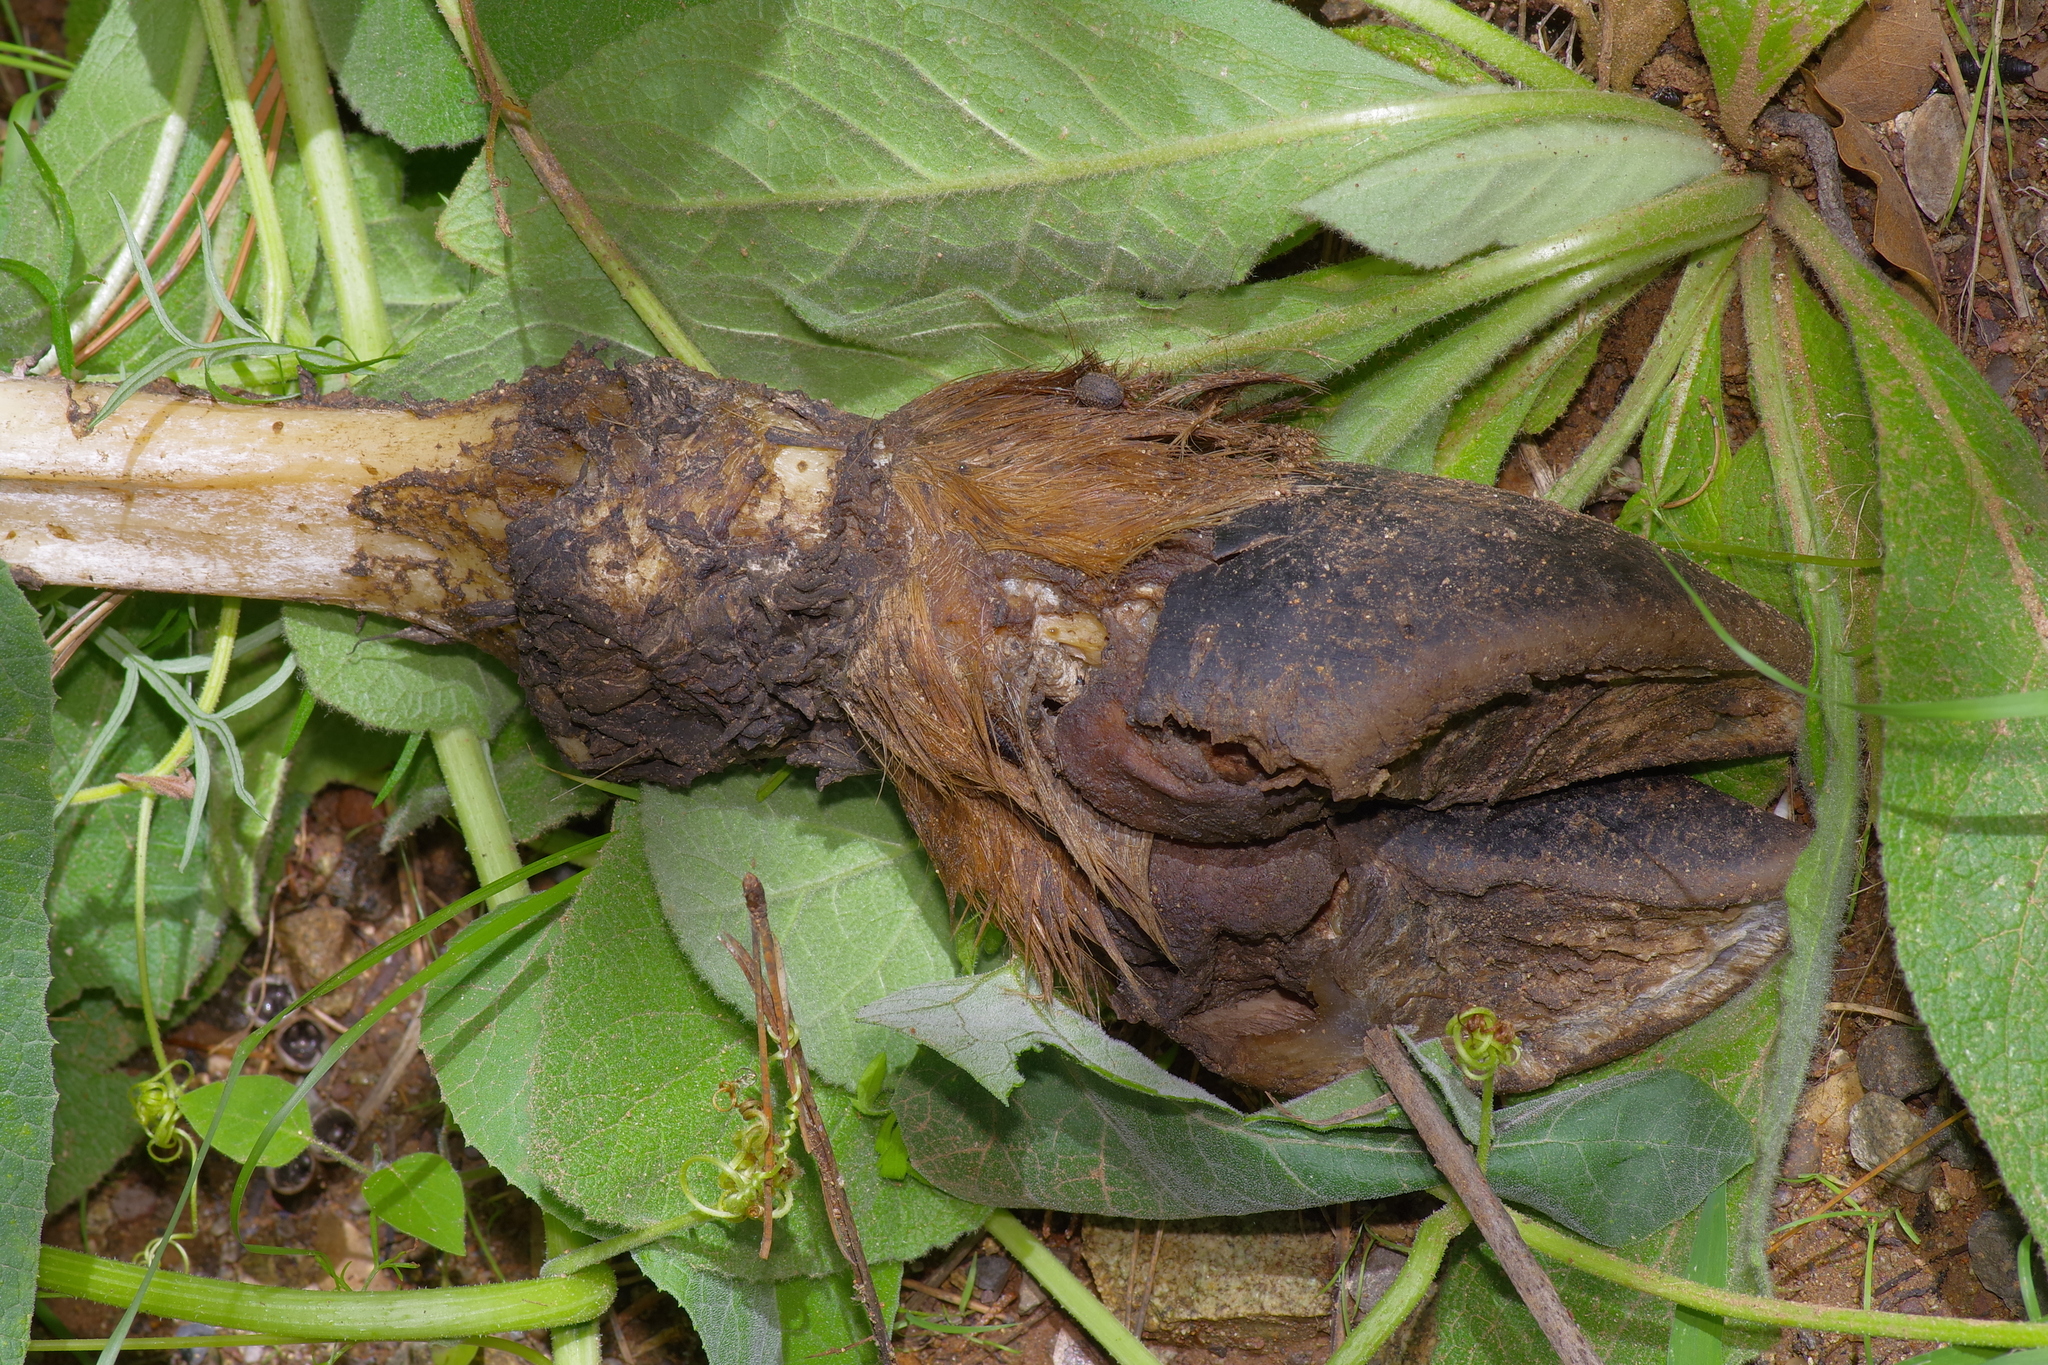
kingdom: Animalia
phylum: Chordata
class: Mammalia
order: Artiodactyla
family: Cervidae
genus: Cervus
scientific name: Cervus elaphus
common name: Red deer
